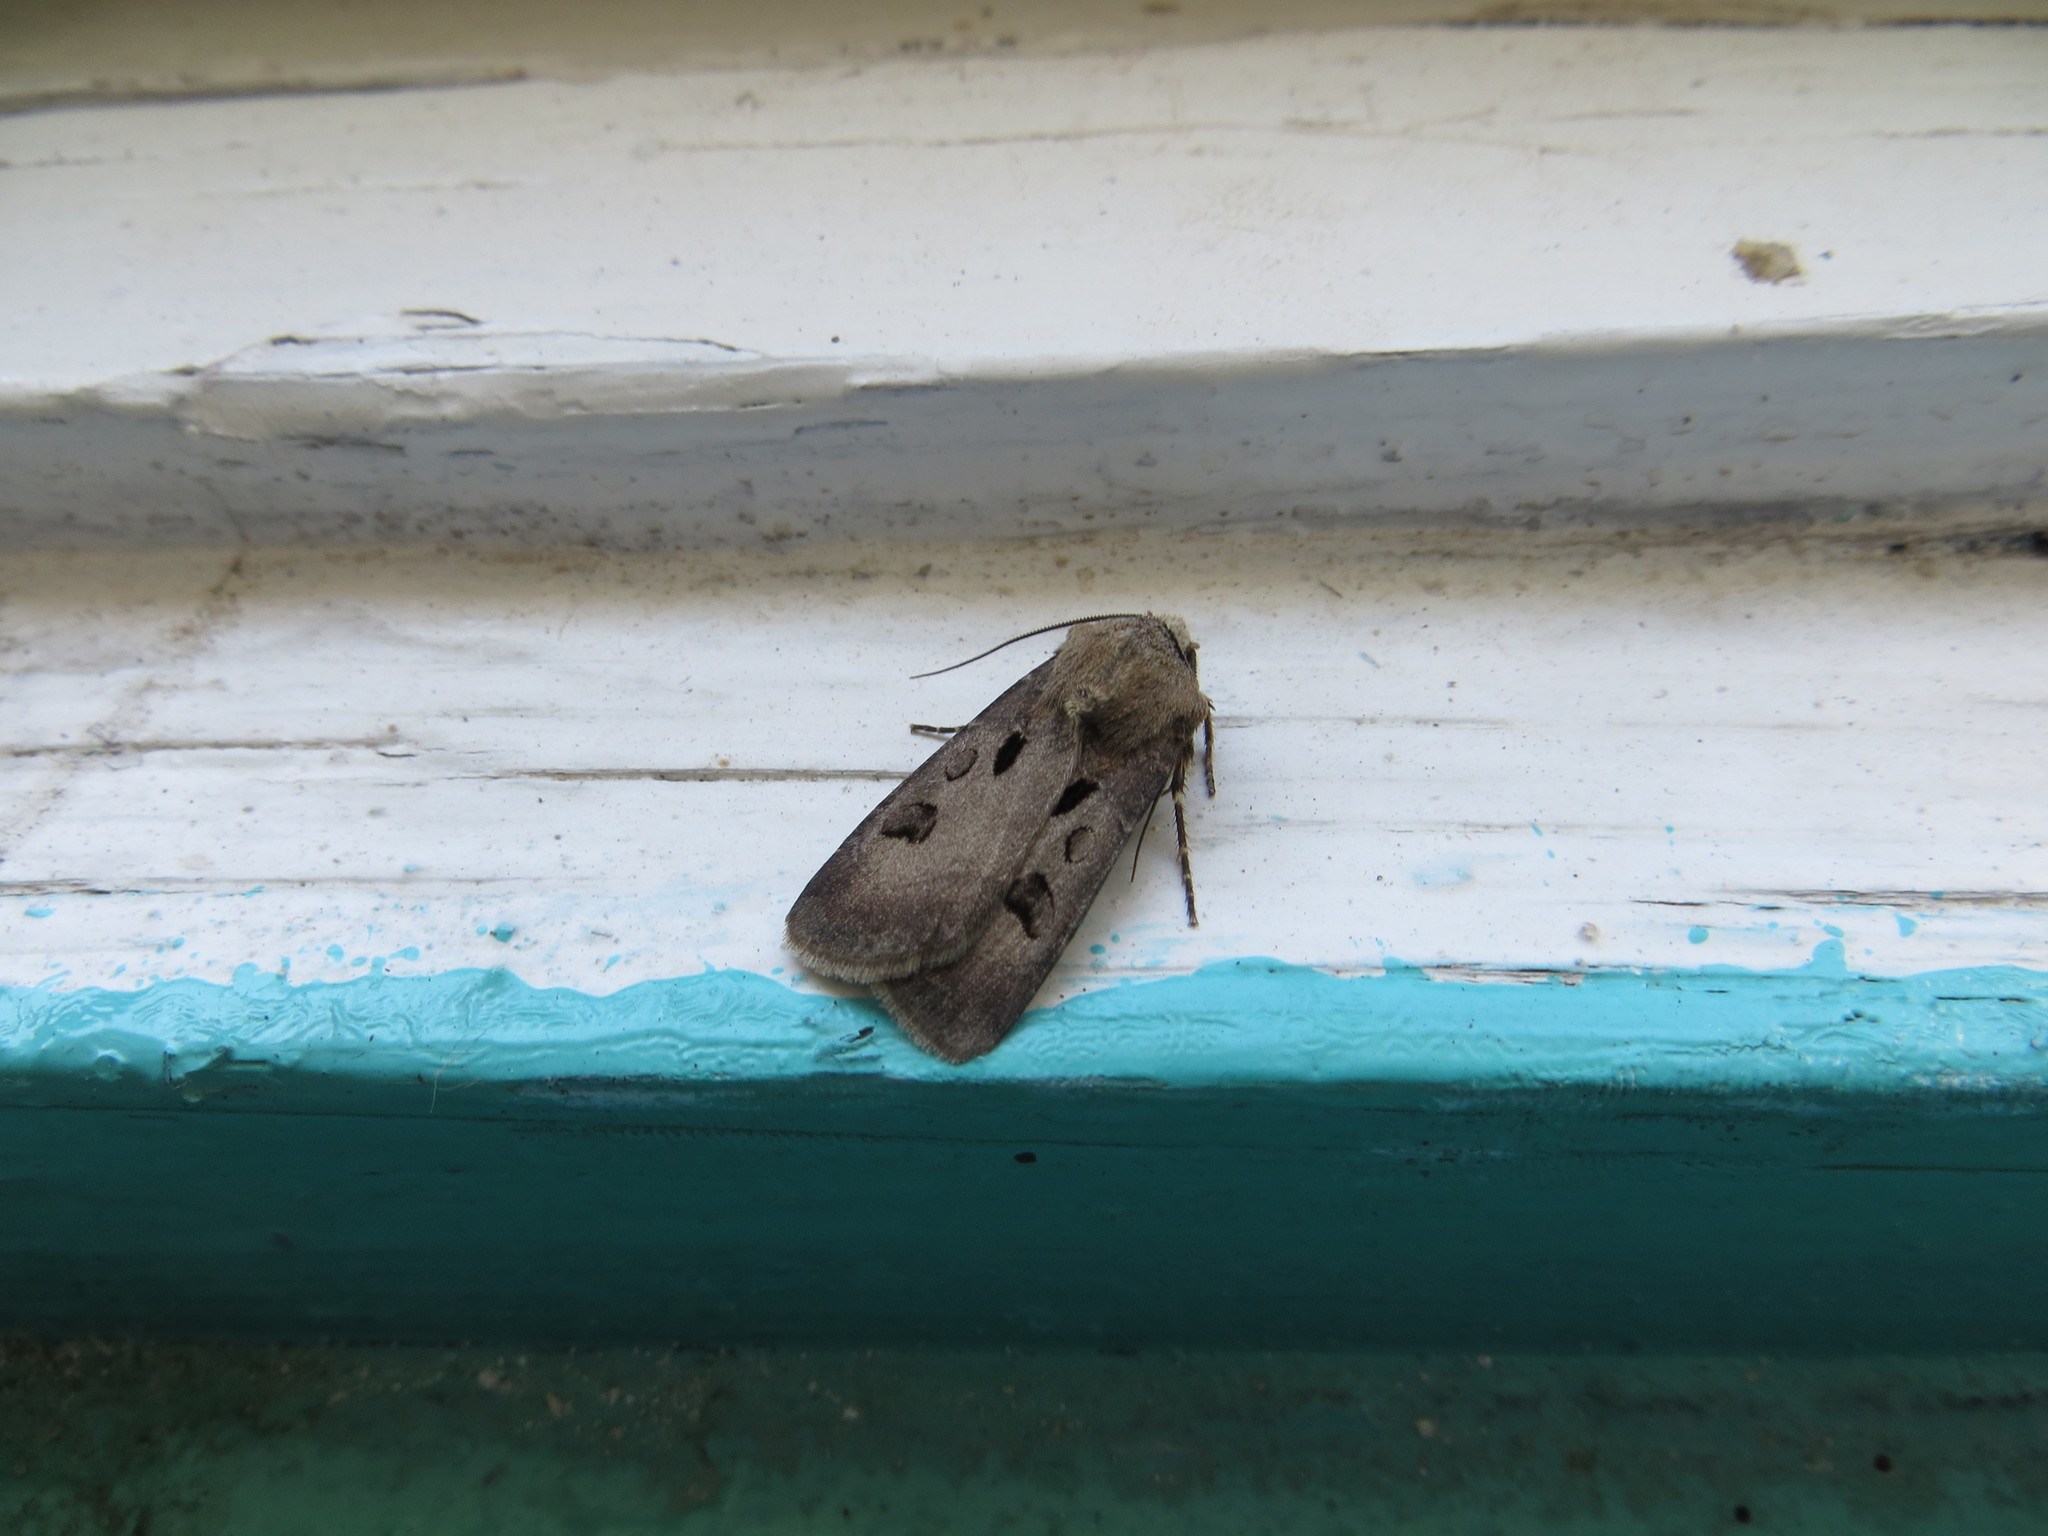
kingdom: Animalia
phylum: Arthropoda
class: Insecta
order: Lepidoptera
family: Noctuidae
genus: Agrotis
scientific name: Agrotis exclamationis
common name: Heart and dart
